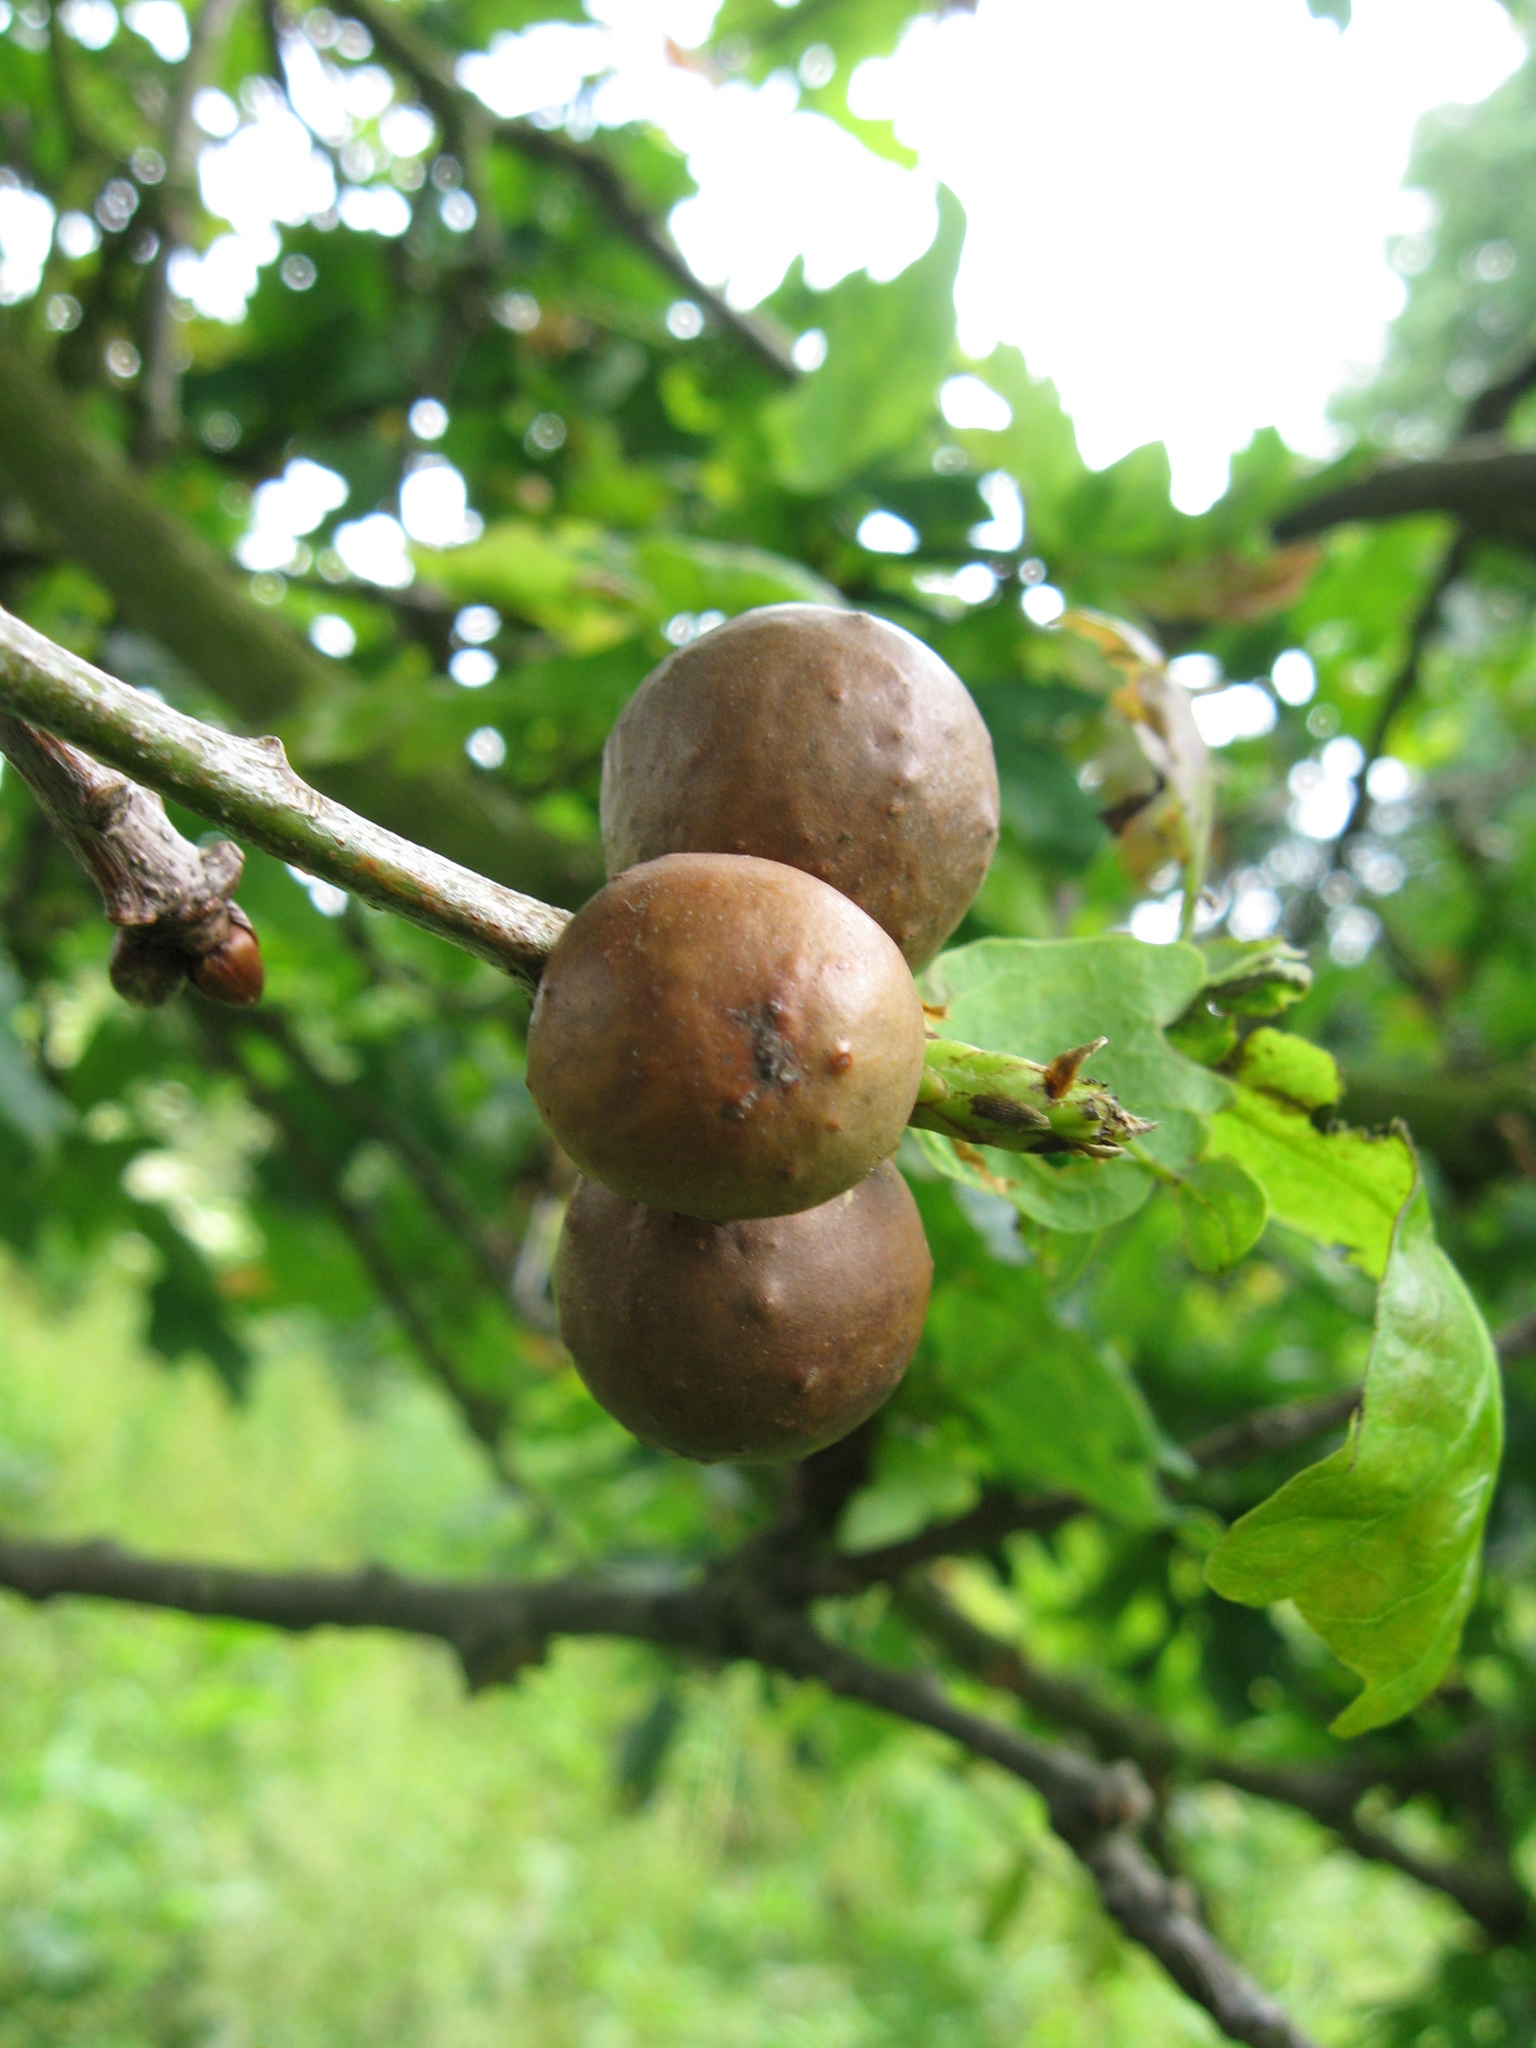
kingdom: Animalia
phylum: Arthropoda
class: Insecta
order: Hymenoptera
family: Cynipidae
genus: Andricus
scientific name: Andricus kollari
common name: Marble gall
